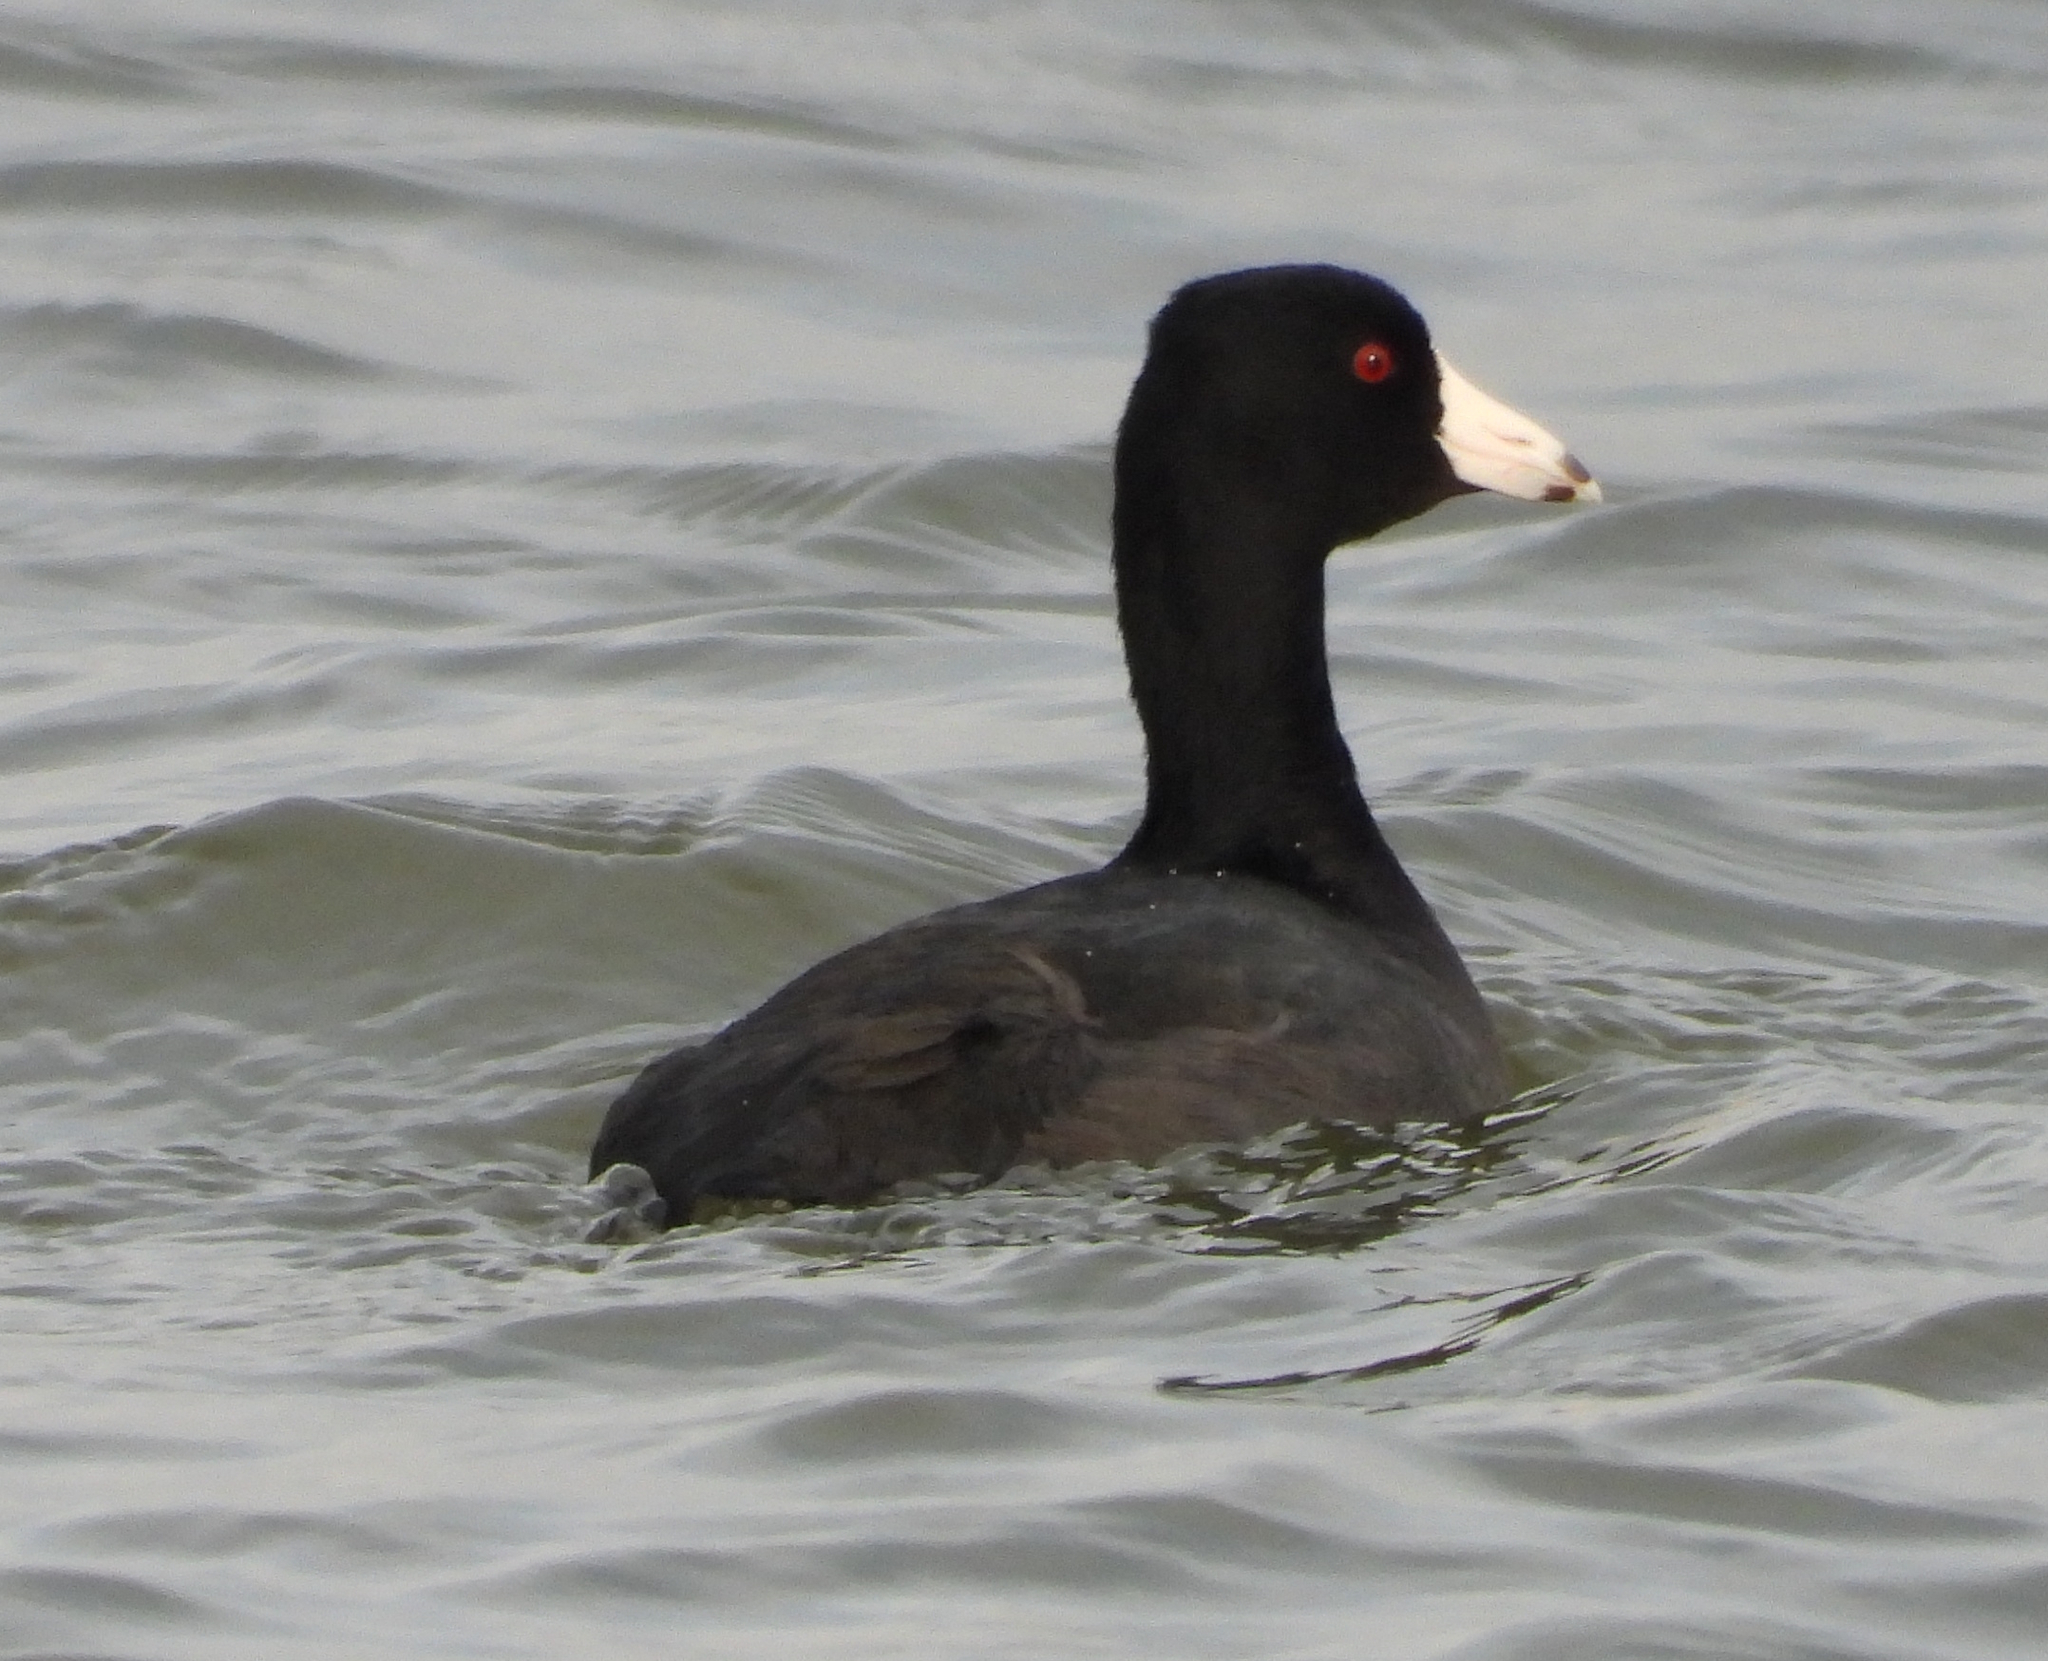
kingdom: Animalia
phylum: Chordata
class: Aves
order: Gruiformes
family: Rallidae
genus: Fulica
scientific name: Fulica americana
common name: American coot
